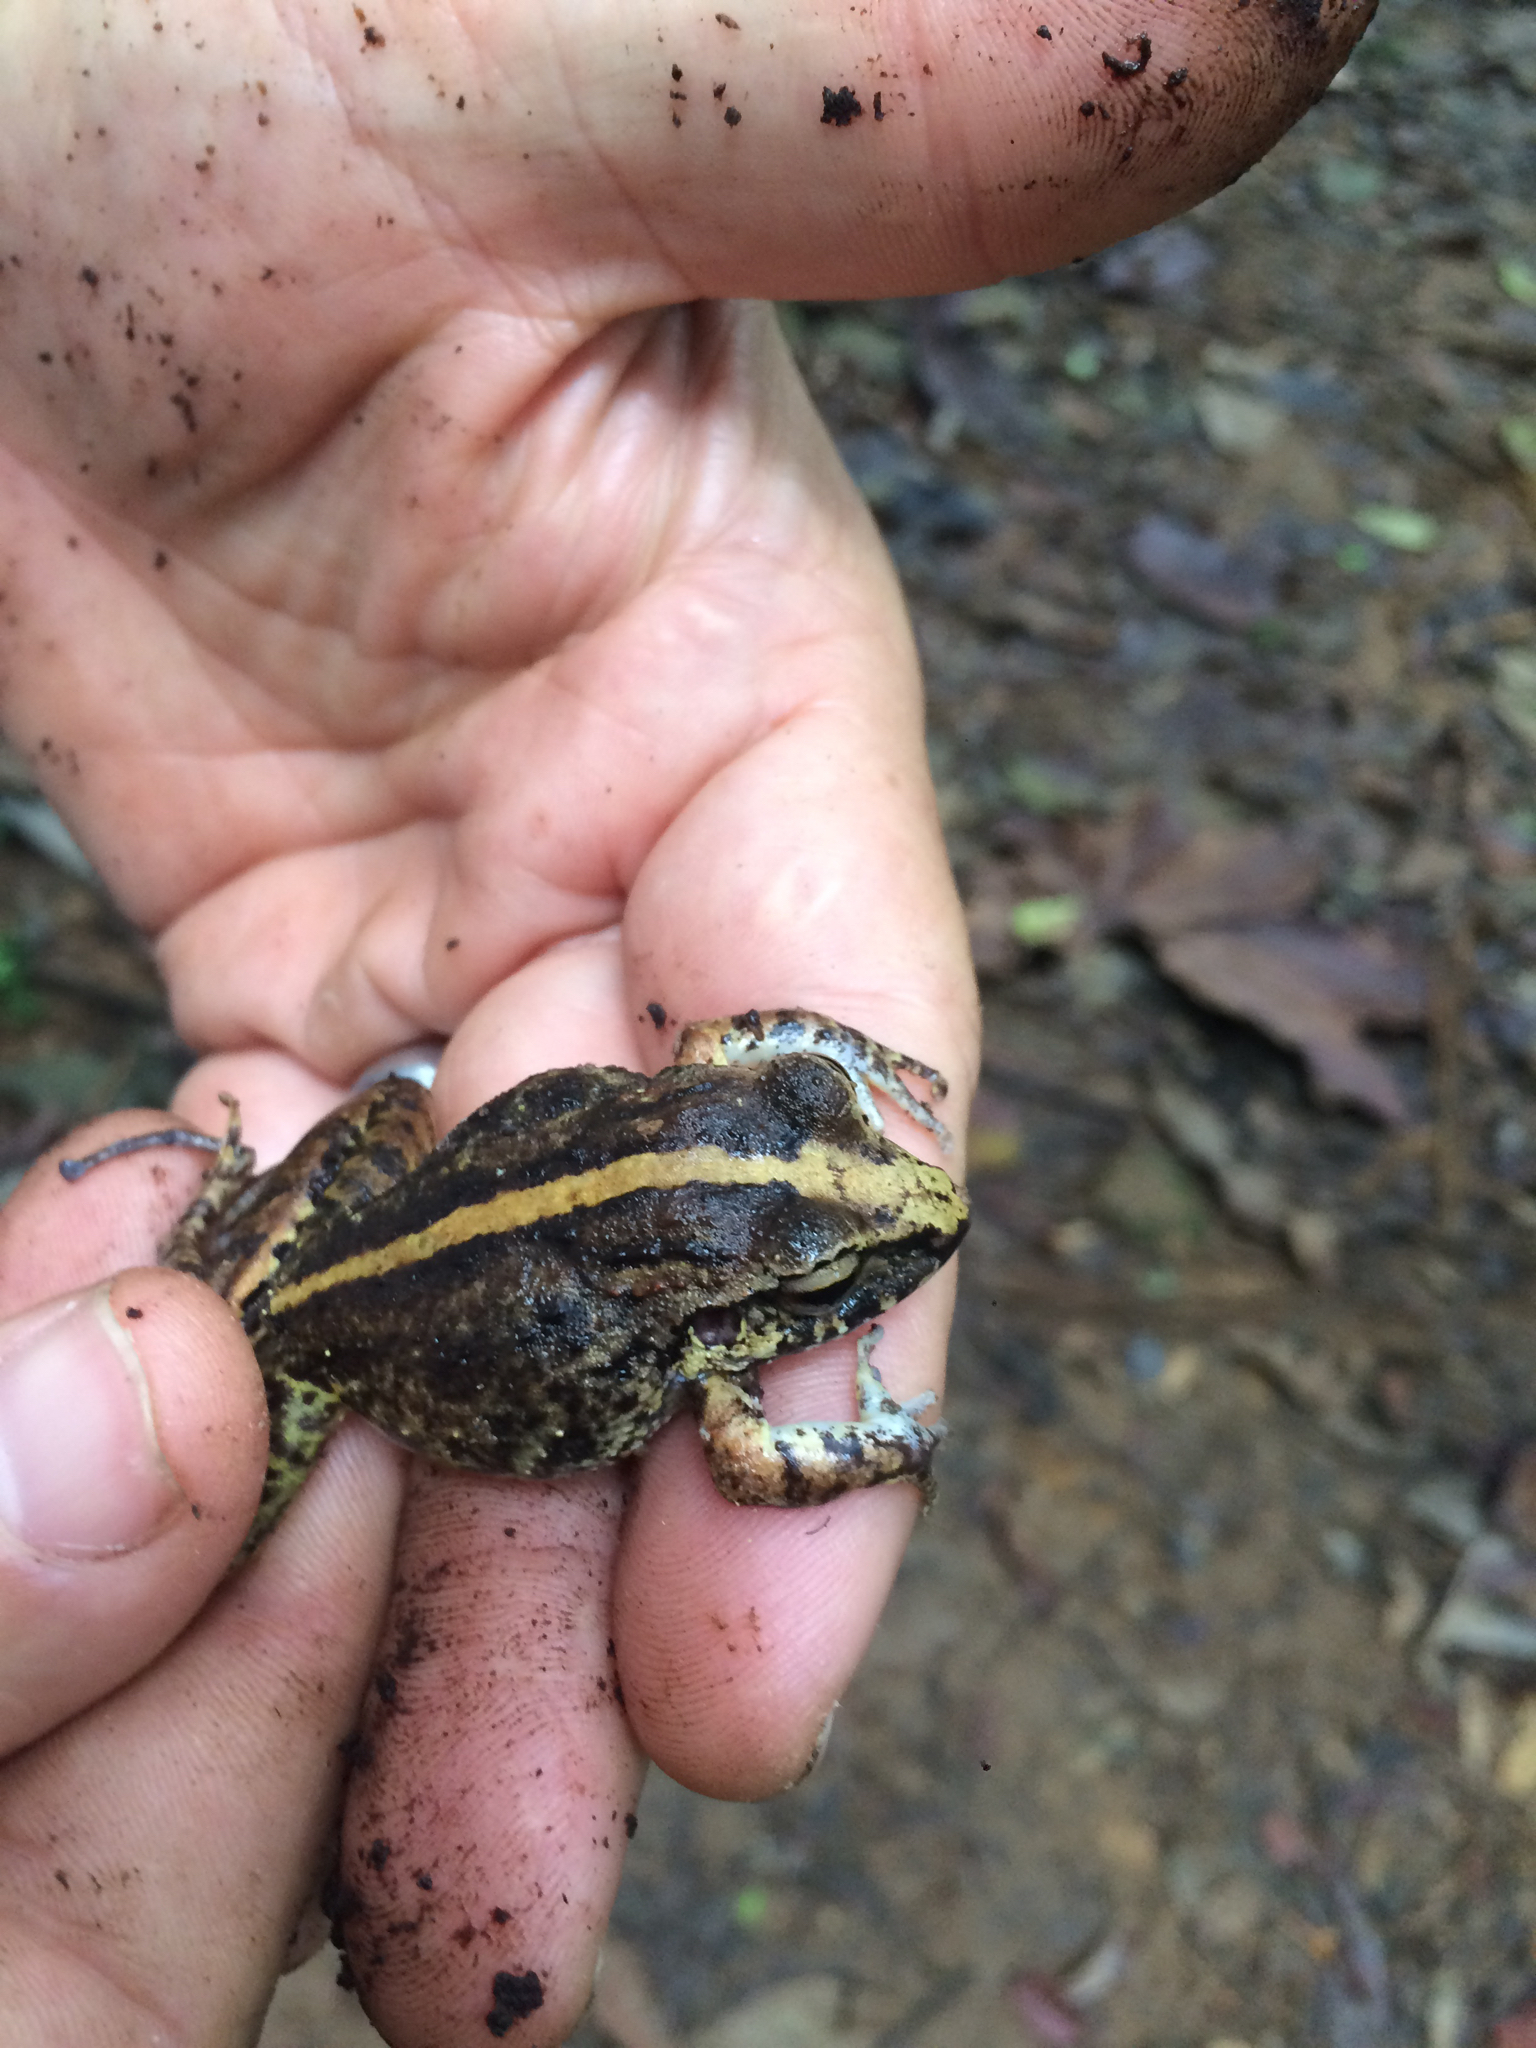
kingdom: Animalia
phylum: Chordata
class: Amphibia
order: Anura
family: Craugastoridae
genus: Craugastor
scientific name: Craugastor fitzingeri
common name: Fitzinger's robber frog
